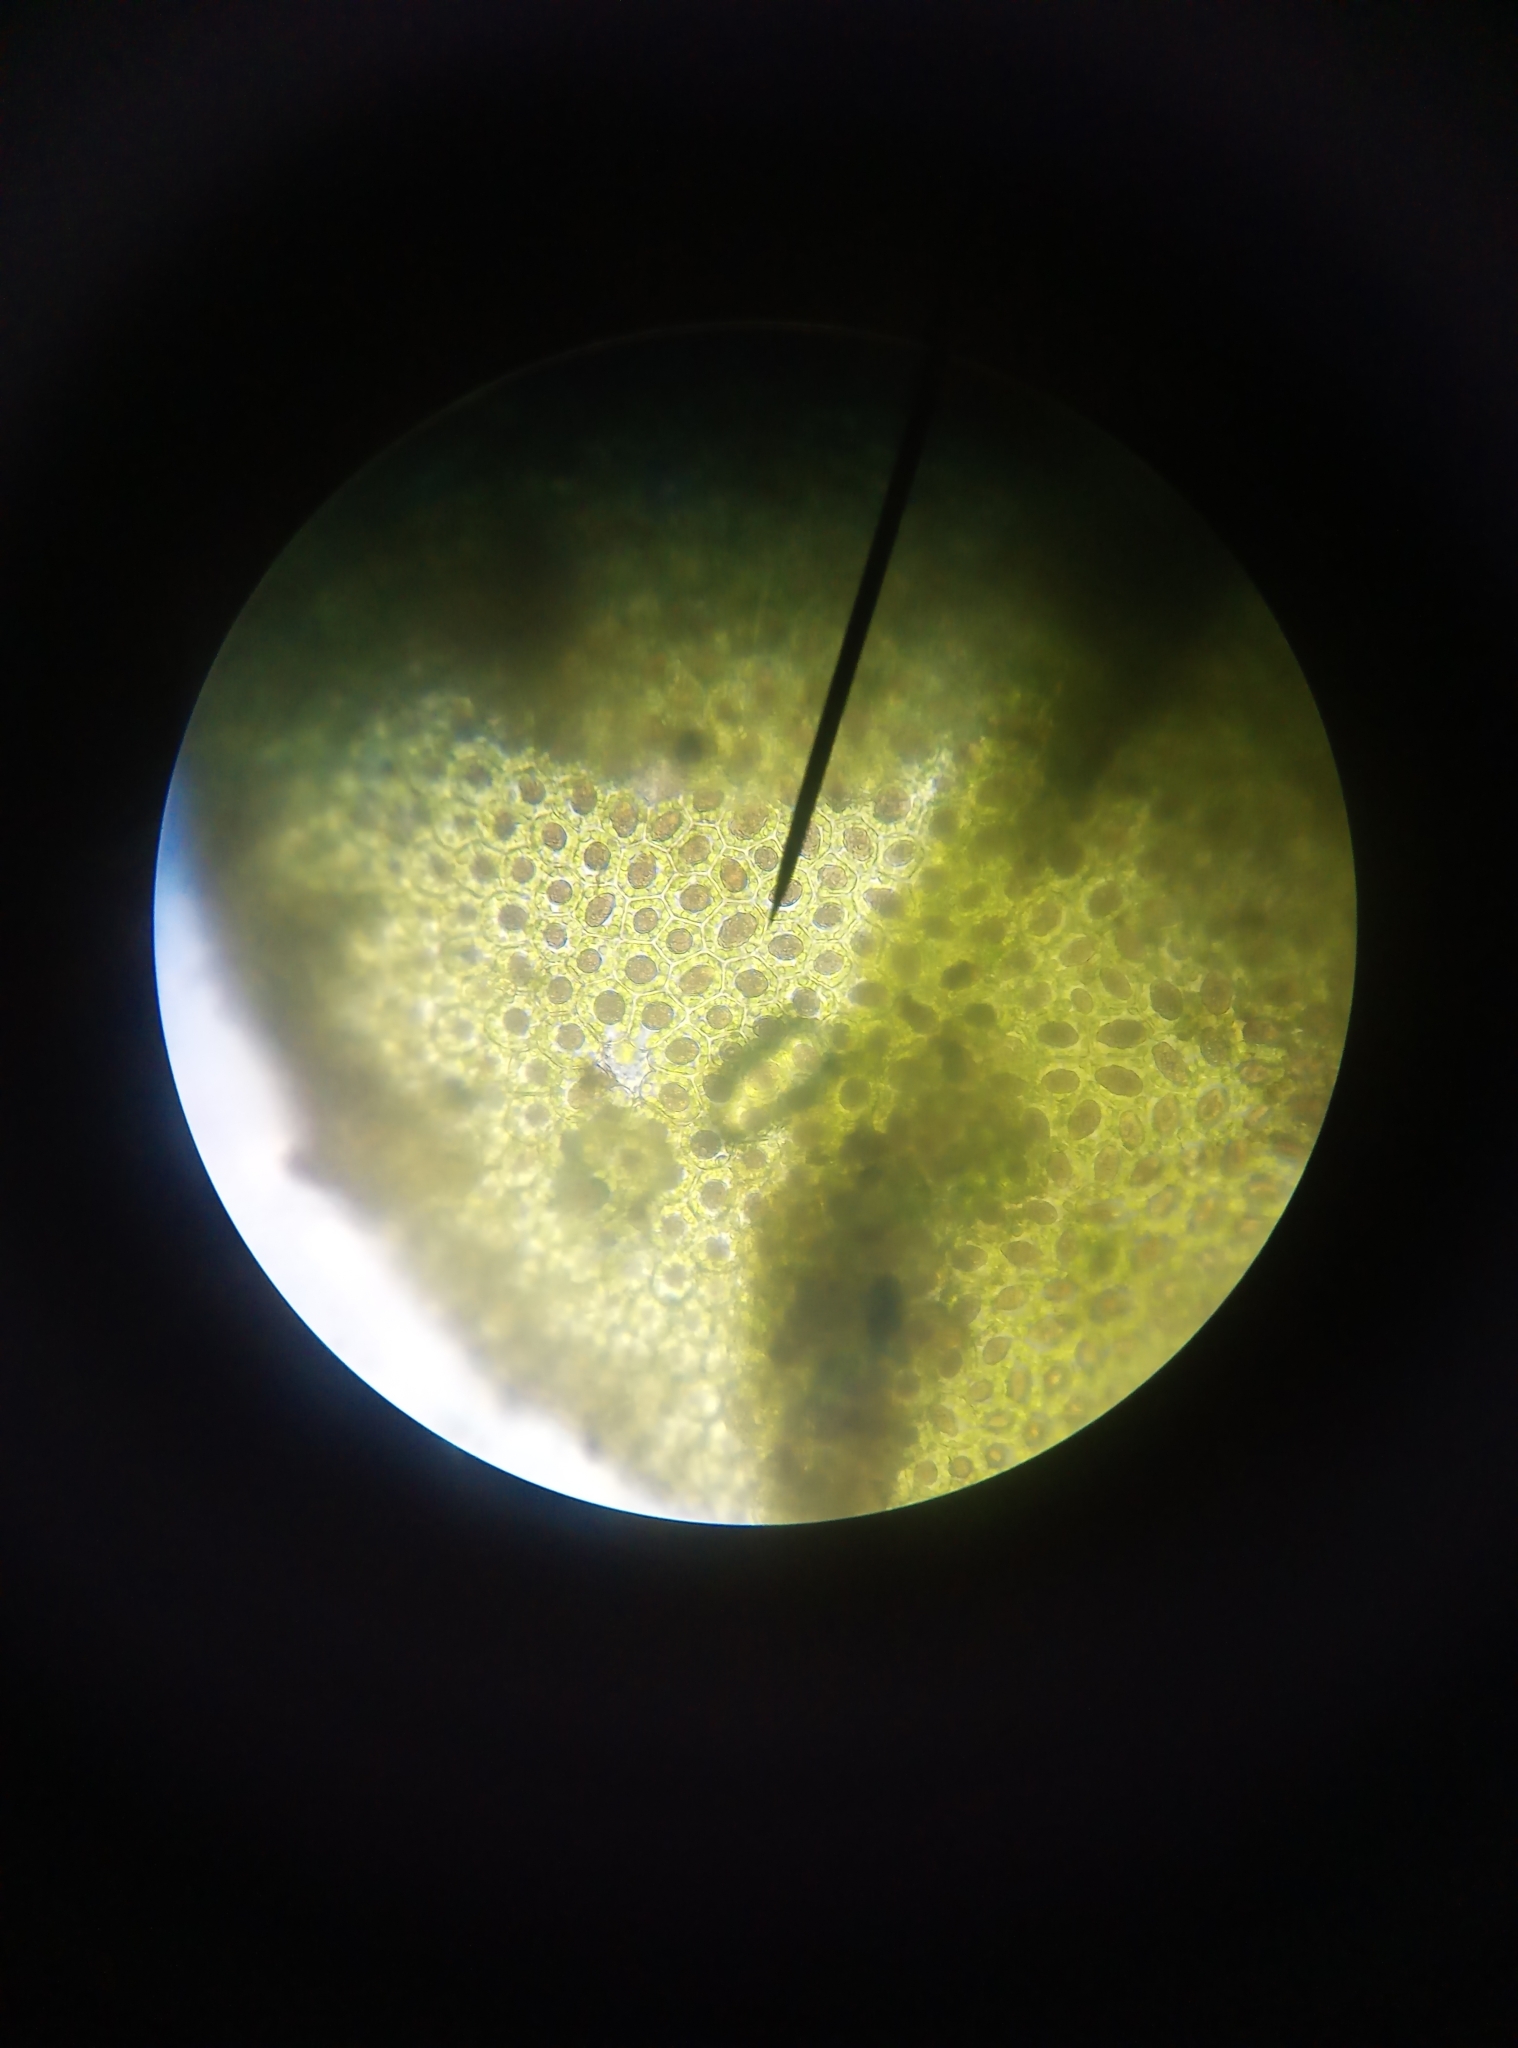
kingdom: Plantae
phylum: Marchantiophyta
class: Jungermanniopsida
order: Porellales
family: Radulaceae
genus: Radula
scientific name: Radula complanata
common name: Flat-leaved scalewort
